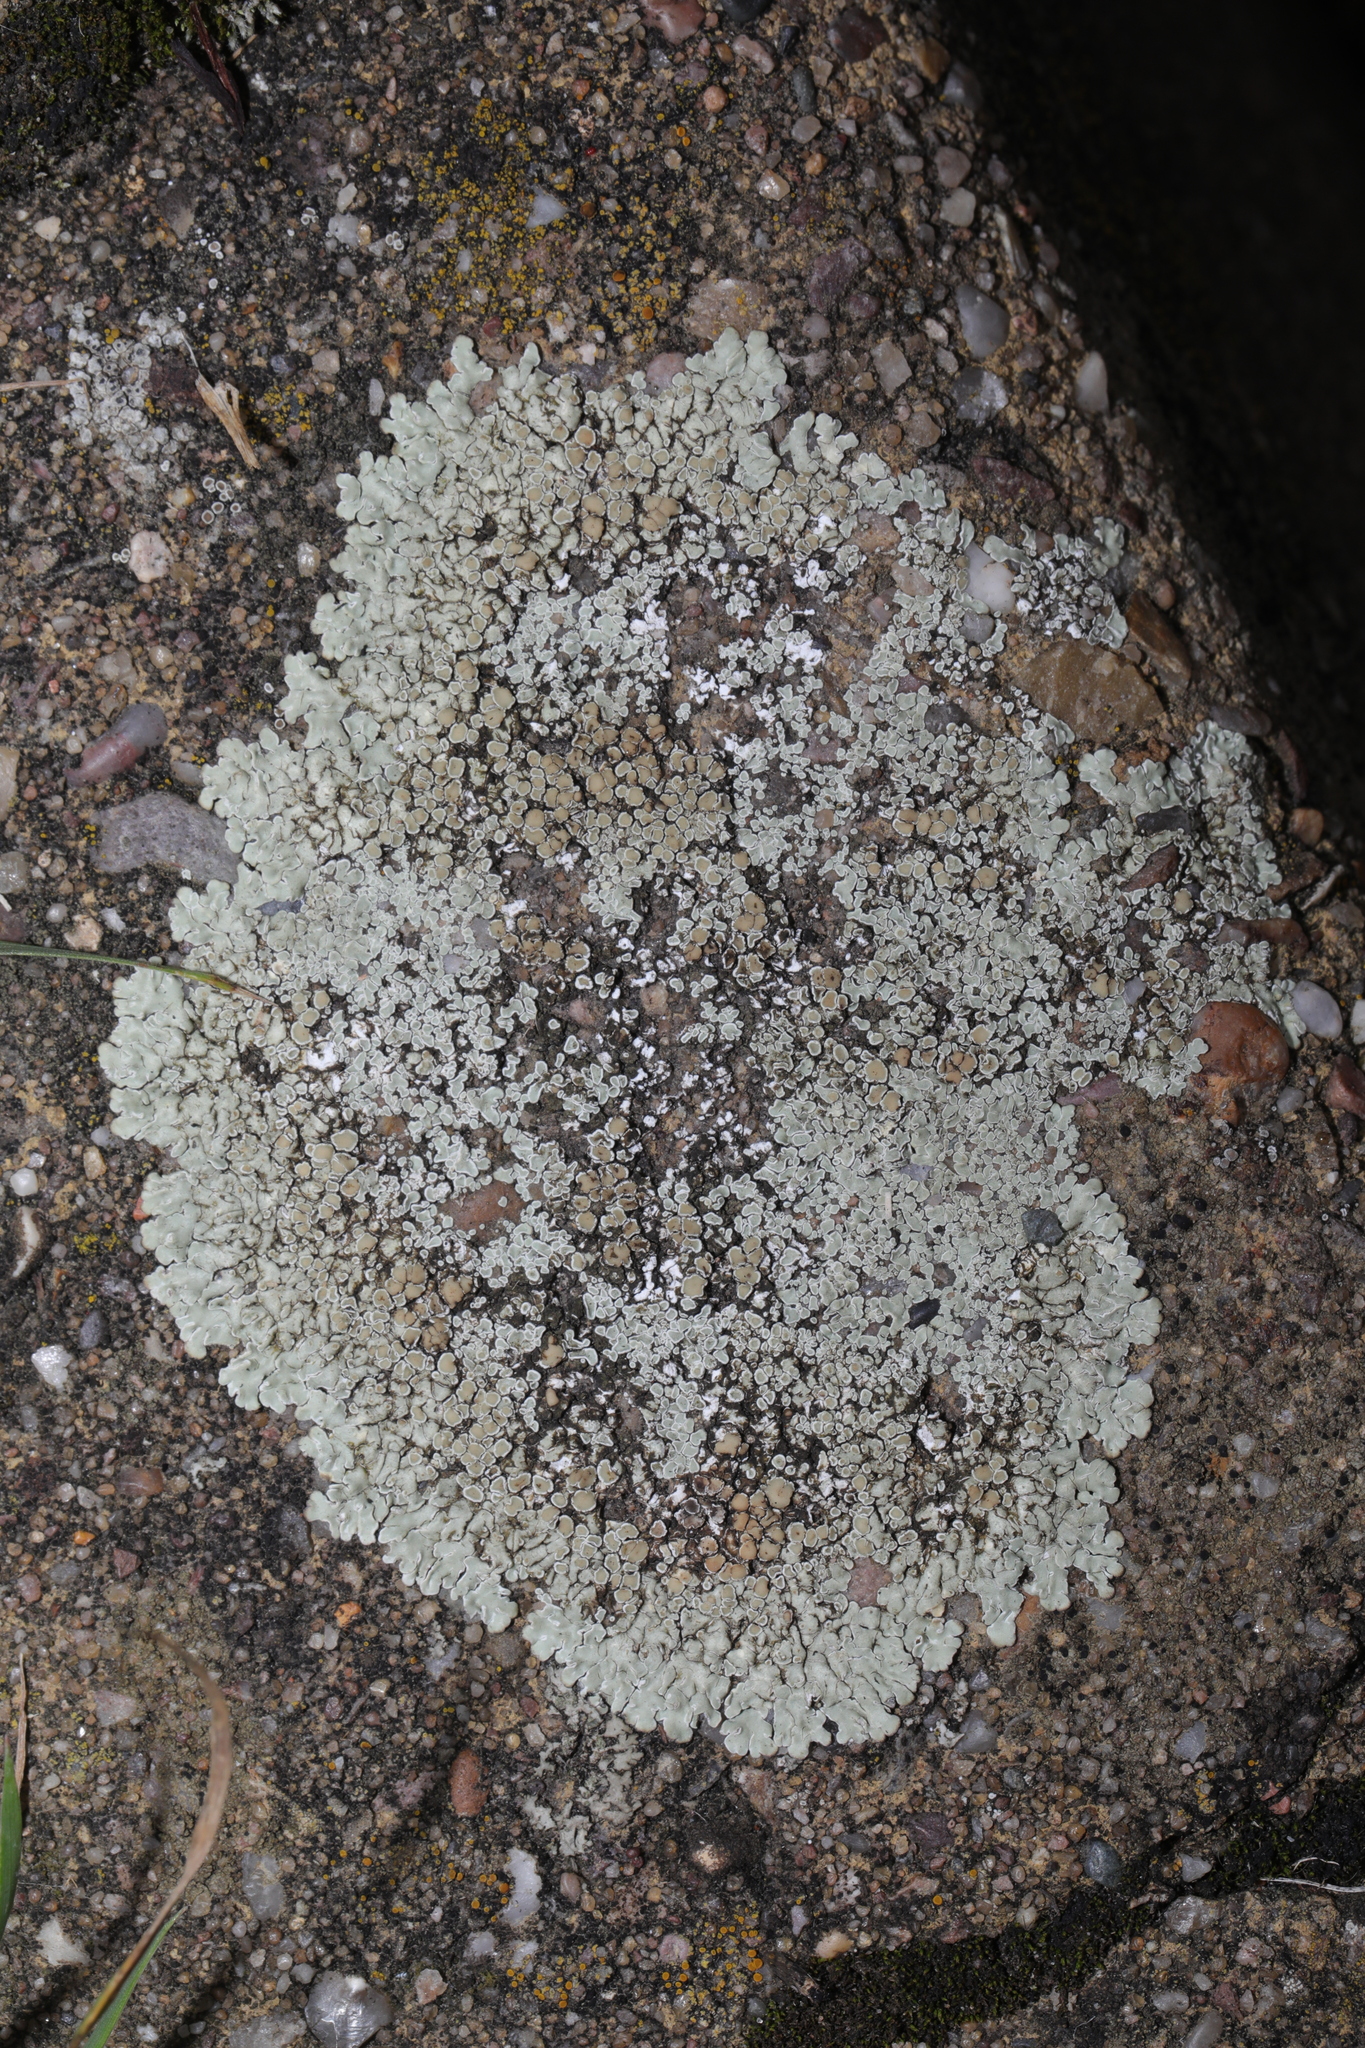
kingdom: Fungi
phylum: Ascomycota
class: Lecanoromycetes
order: Lecanorales
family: Lecanoraceae
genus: Protoparmeliopsis
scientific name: Protoparmeliopsis muralis
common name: Stonewall rim lichen
